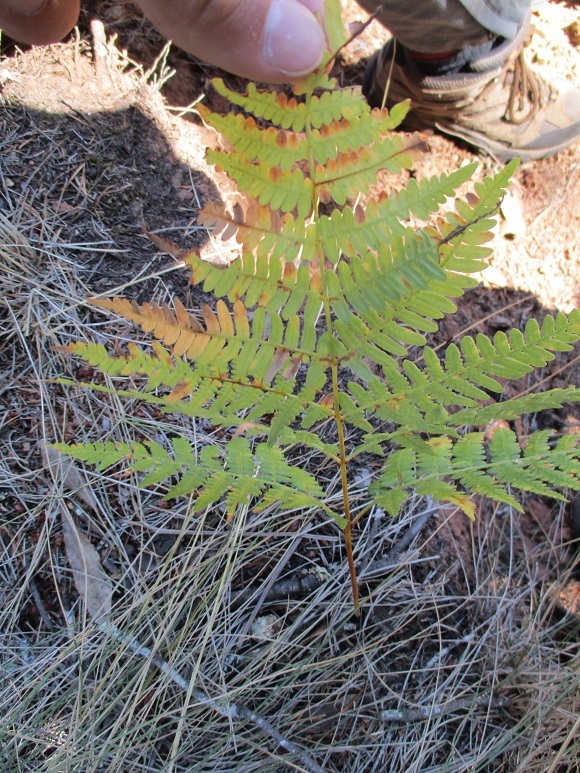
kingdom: Plantae
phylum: Tracheophyta
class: Polypodiopsida
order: Polypodiales
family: Dennstaedtiaceae
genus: Pteridium
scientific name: Pteridium aquilinum
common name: Bracken
